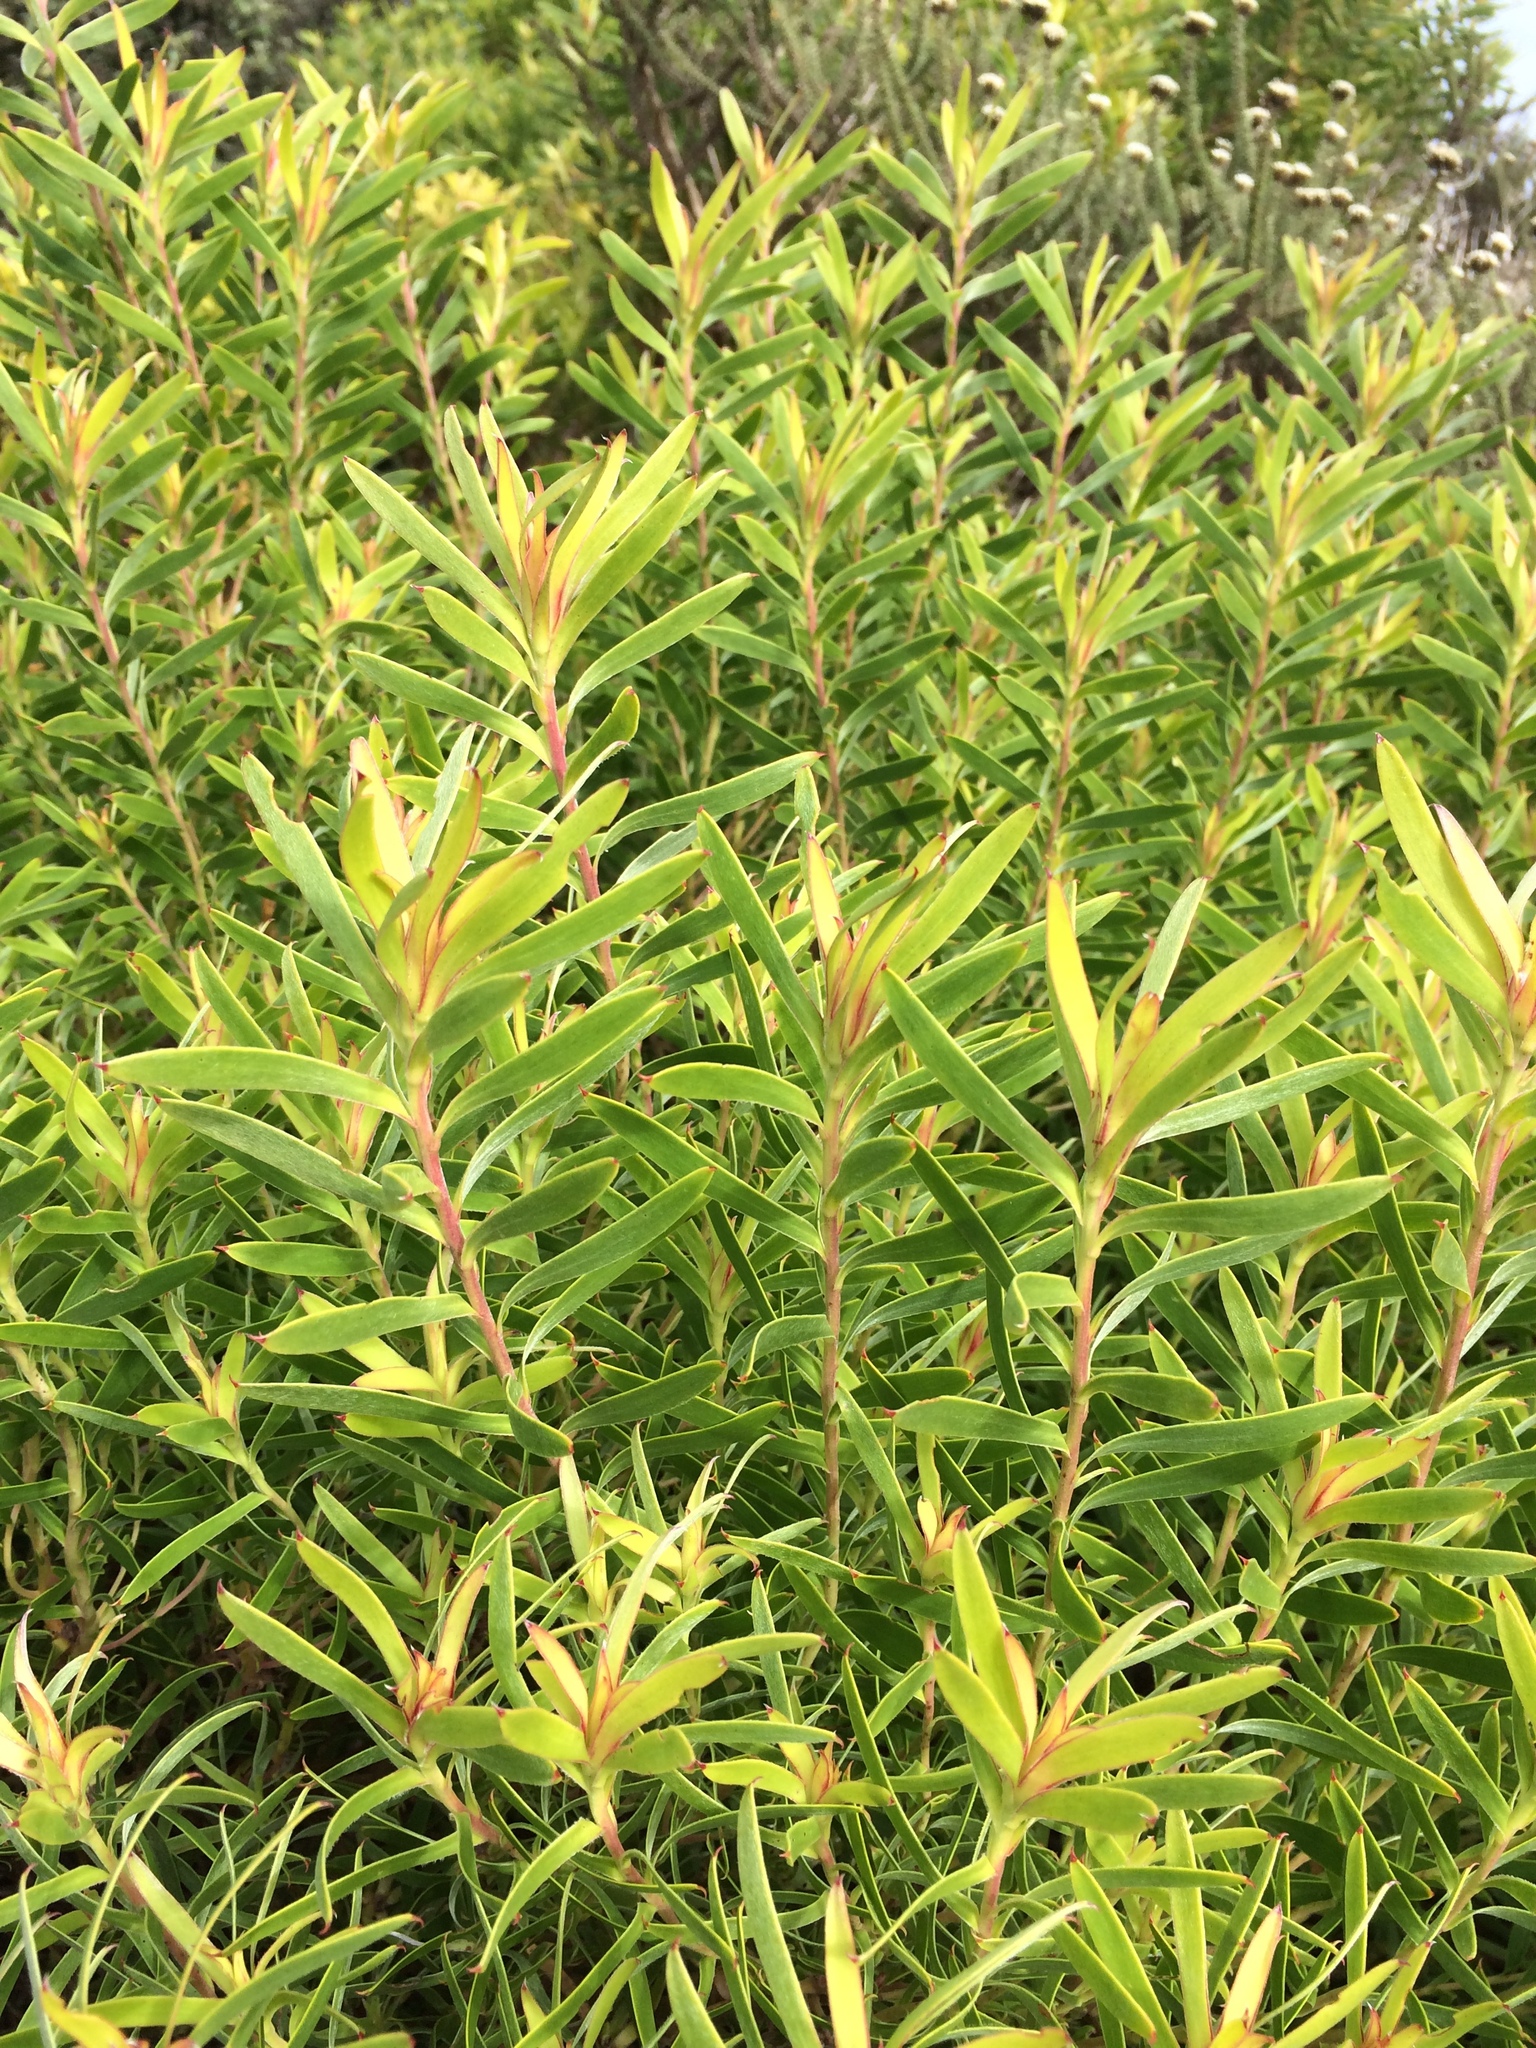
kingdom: Plantae
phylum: Tracheophyta
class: Magnoliopsida
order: Proteales
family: Proteaceae
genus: Leucadendron
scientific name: Leucadendron coniferum
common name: Dune conebush
